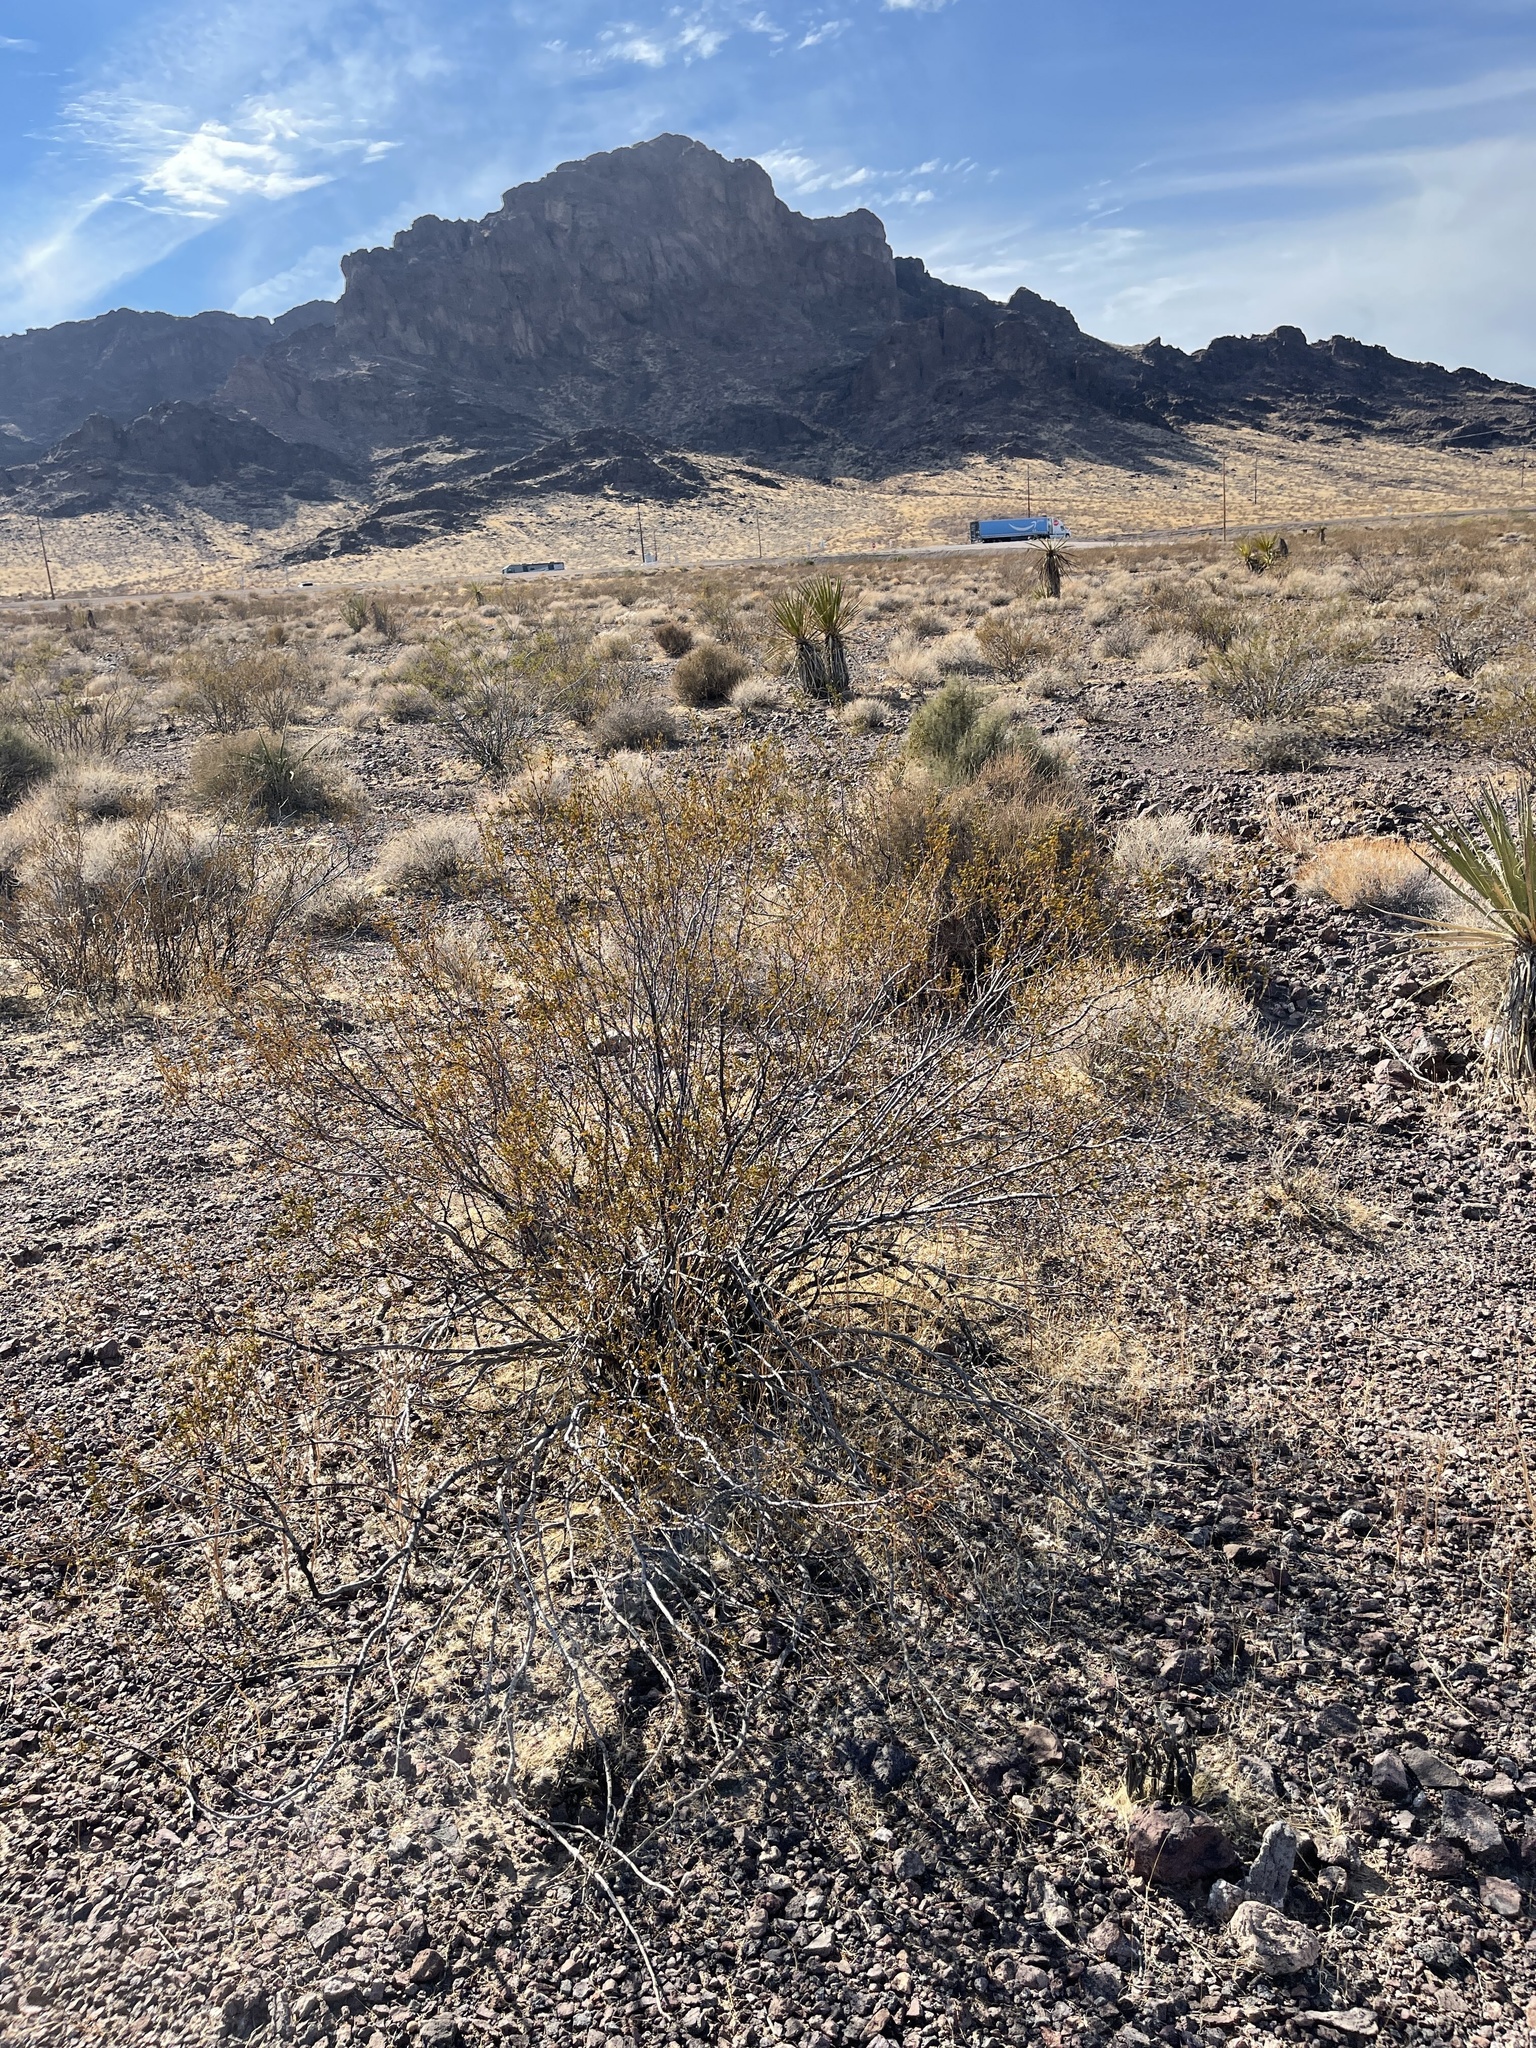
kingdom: Plantae
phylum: Tracheophyta
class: Magnoliopsida
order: Zygophyllales
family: Zygophyllaceae
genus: Larrea
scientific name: Larrea tridentata
